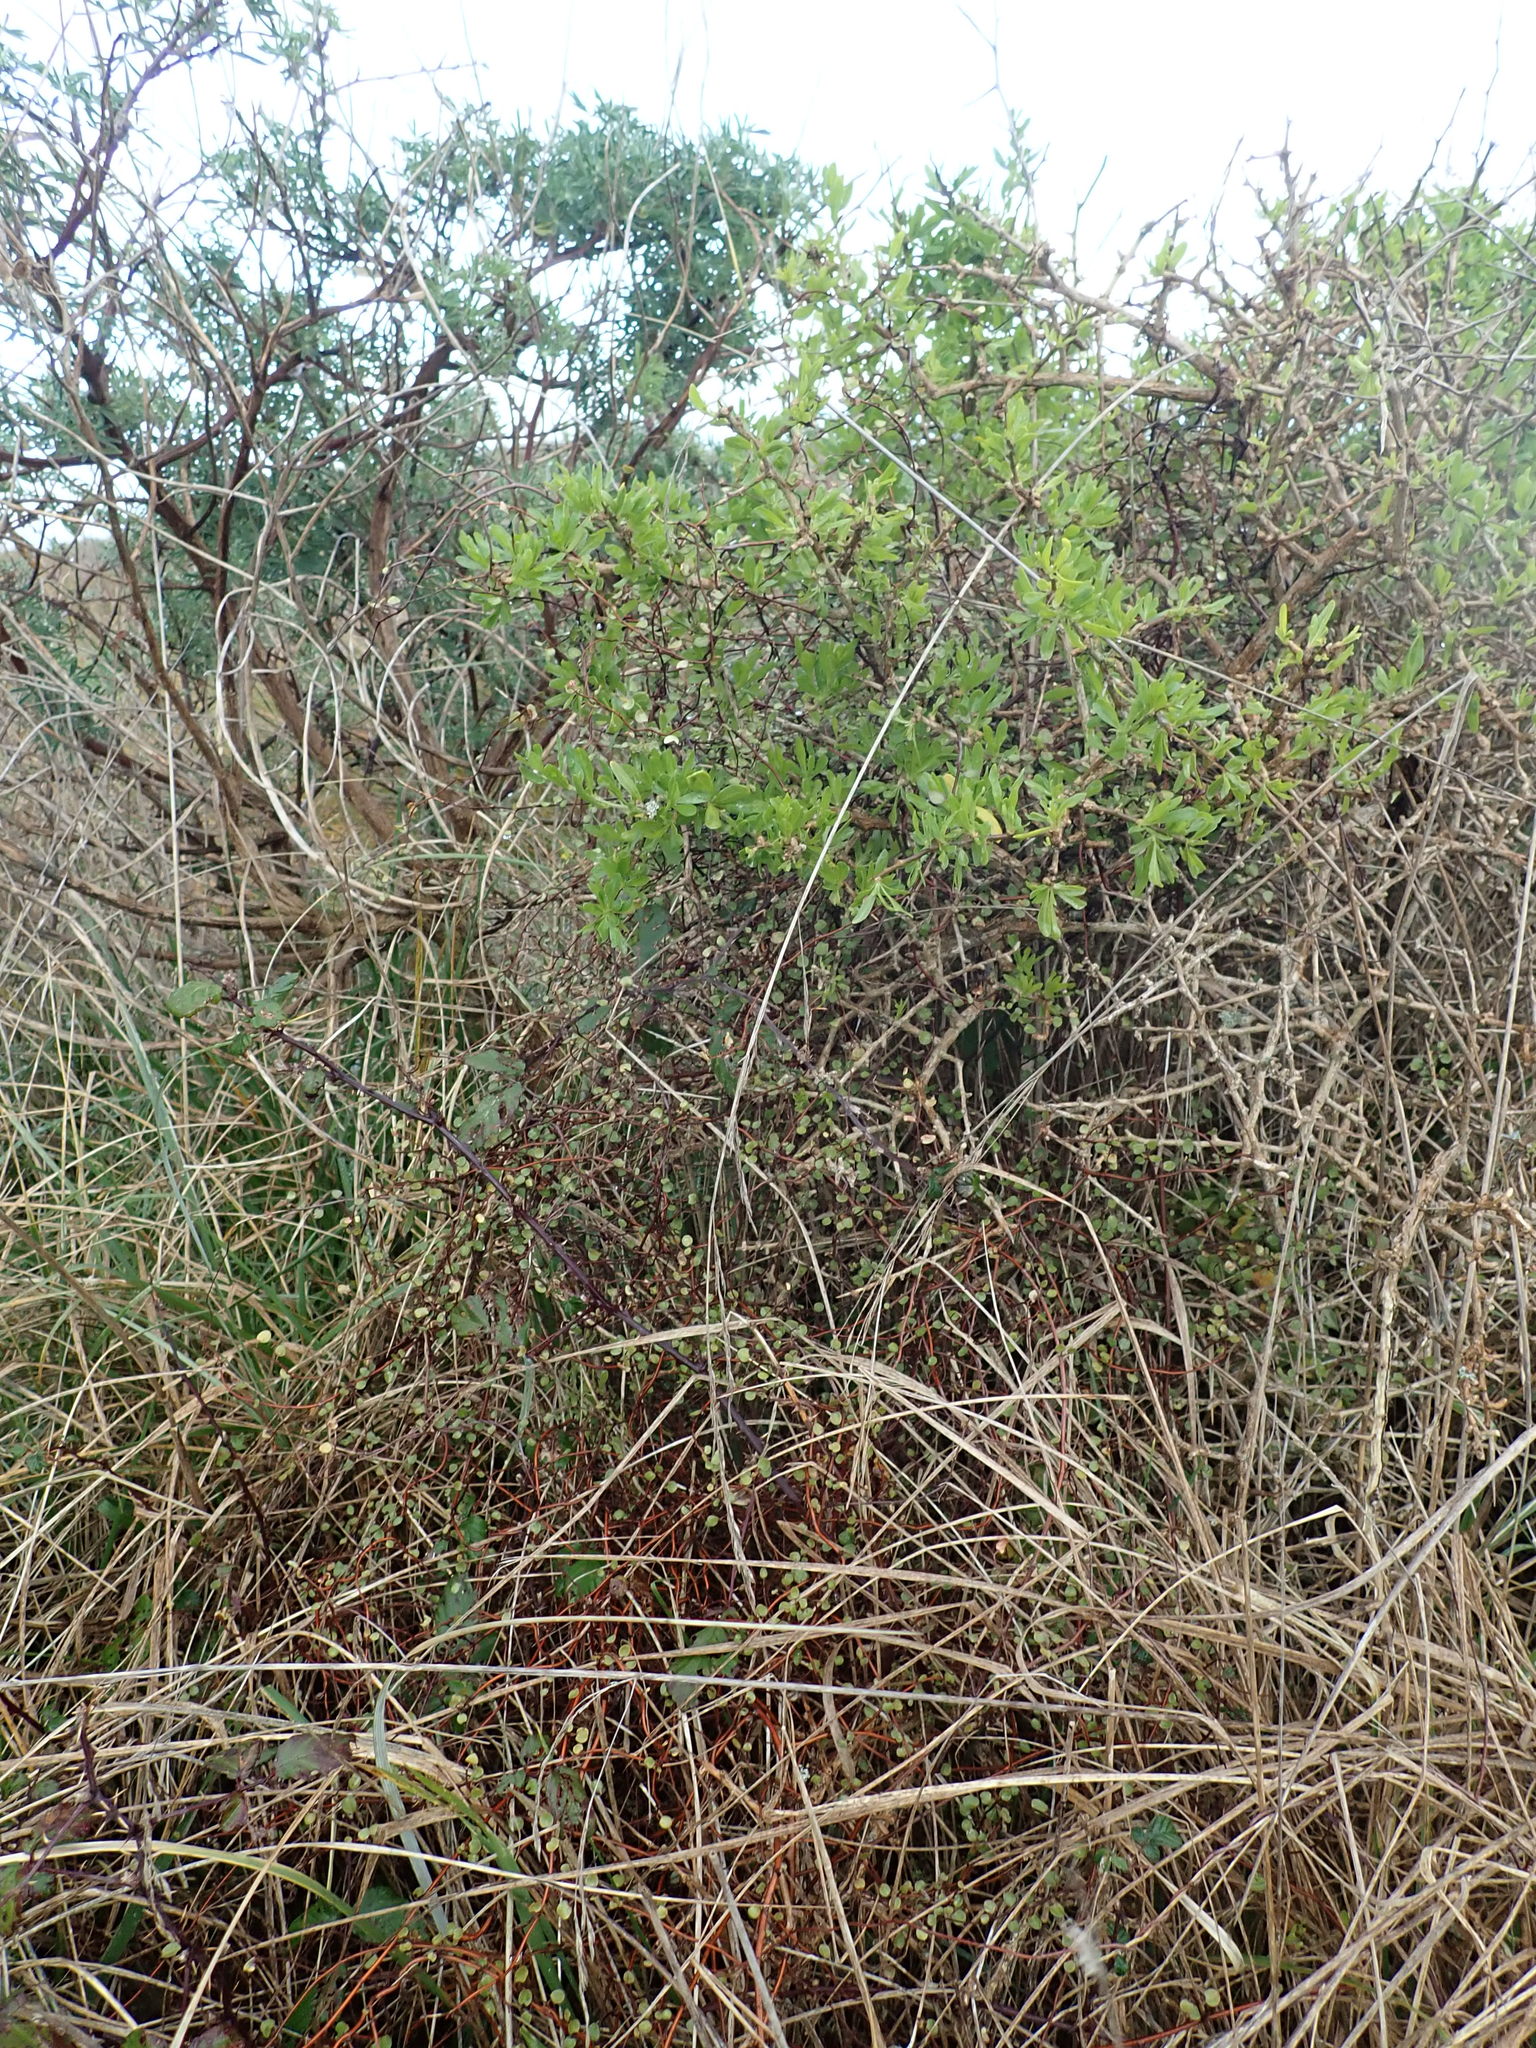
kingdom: Plantae
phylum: Tracheophyta
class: Magnoliopsida
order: Solanales
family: Solanaceae
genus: Lycium
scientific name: Lycium ferocissimum
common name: African boxthorn
